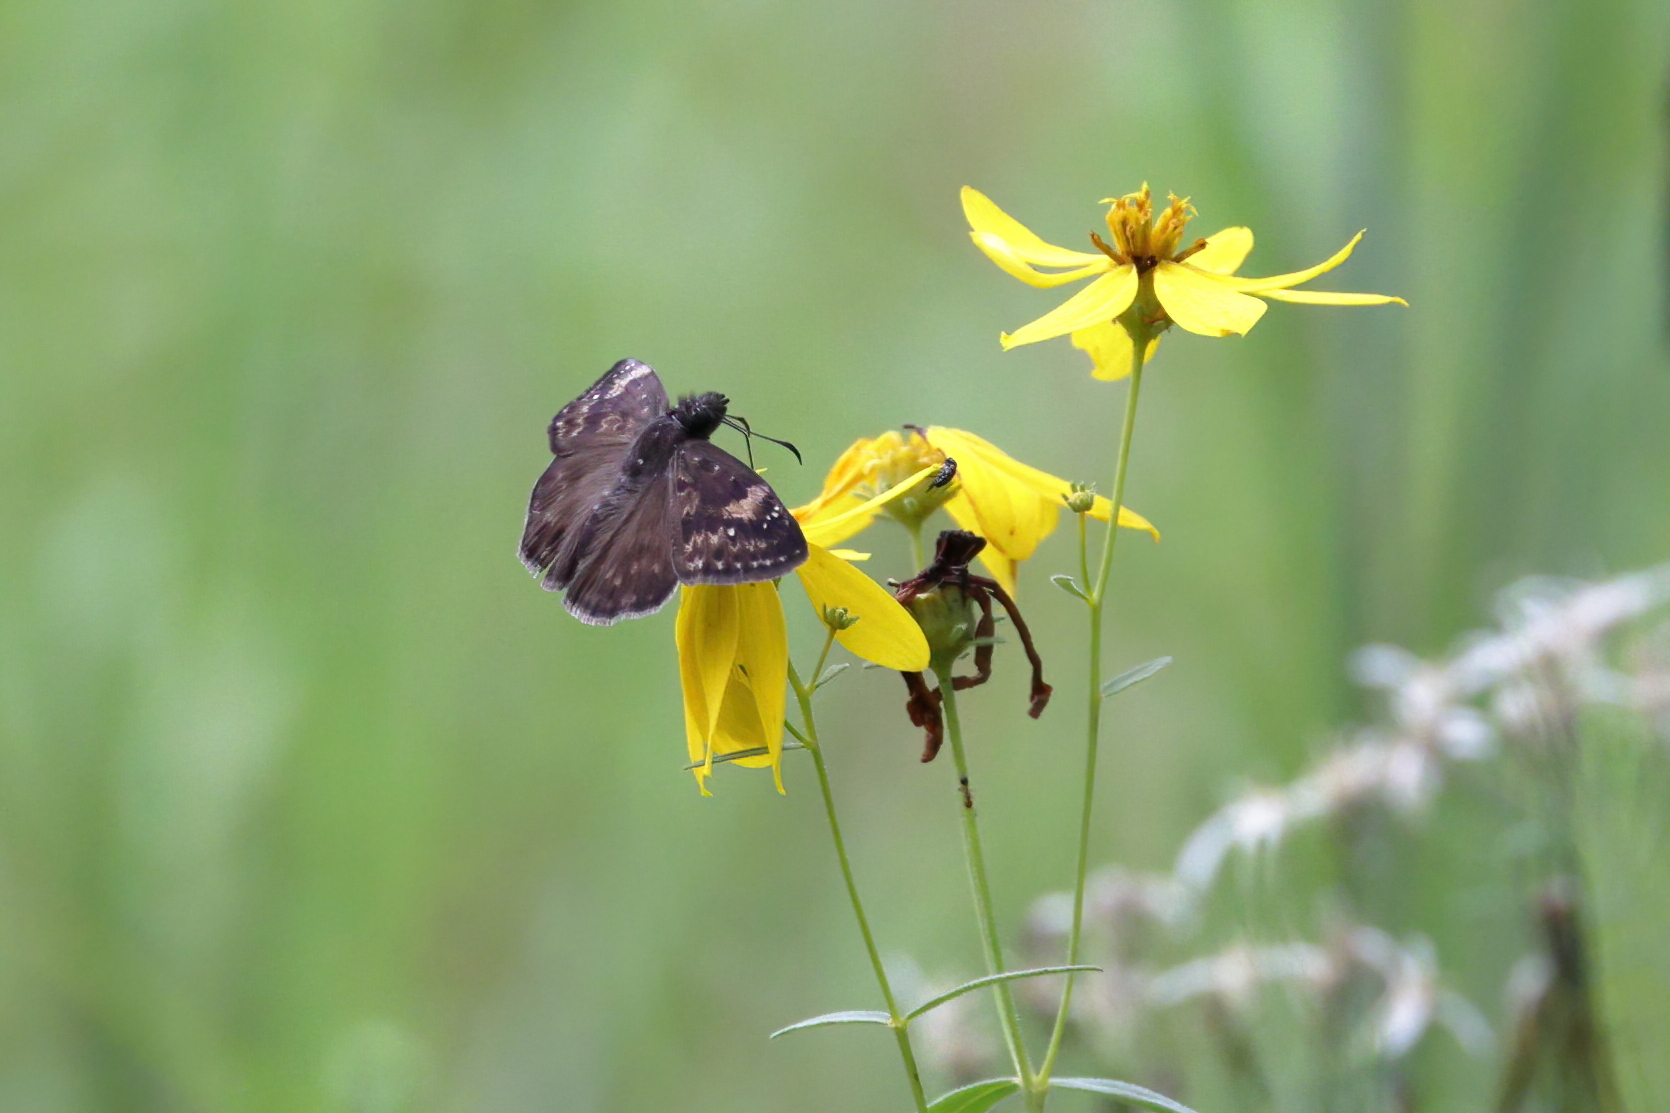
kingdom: Animalia
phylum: Arthropoda
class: Insecta
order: Lepidoptera
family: Hesperiidae
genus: Erynnis
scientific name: Erynnis zarucco
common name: Zarucco duskywing
